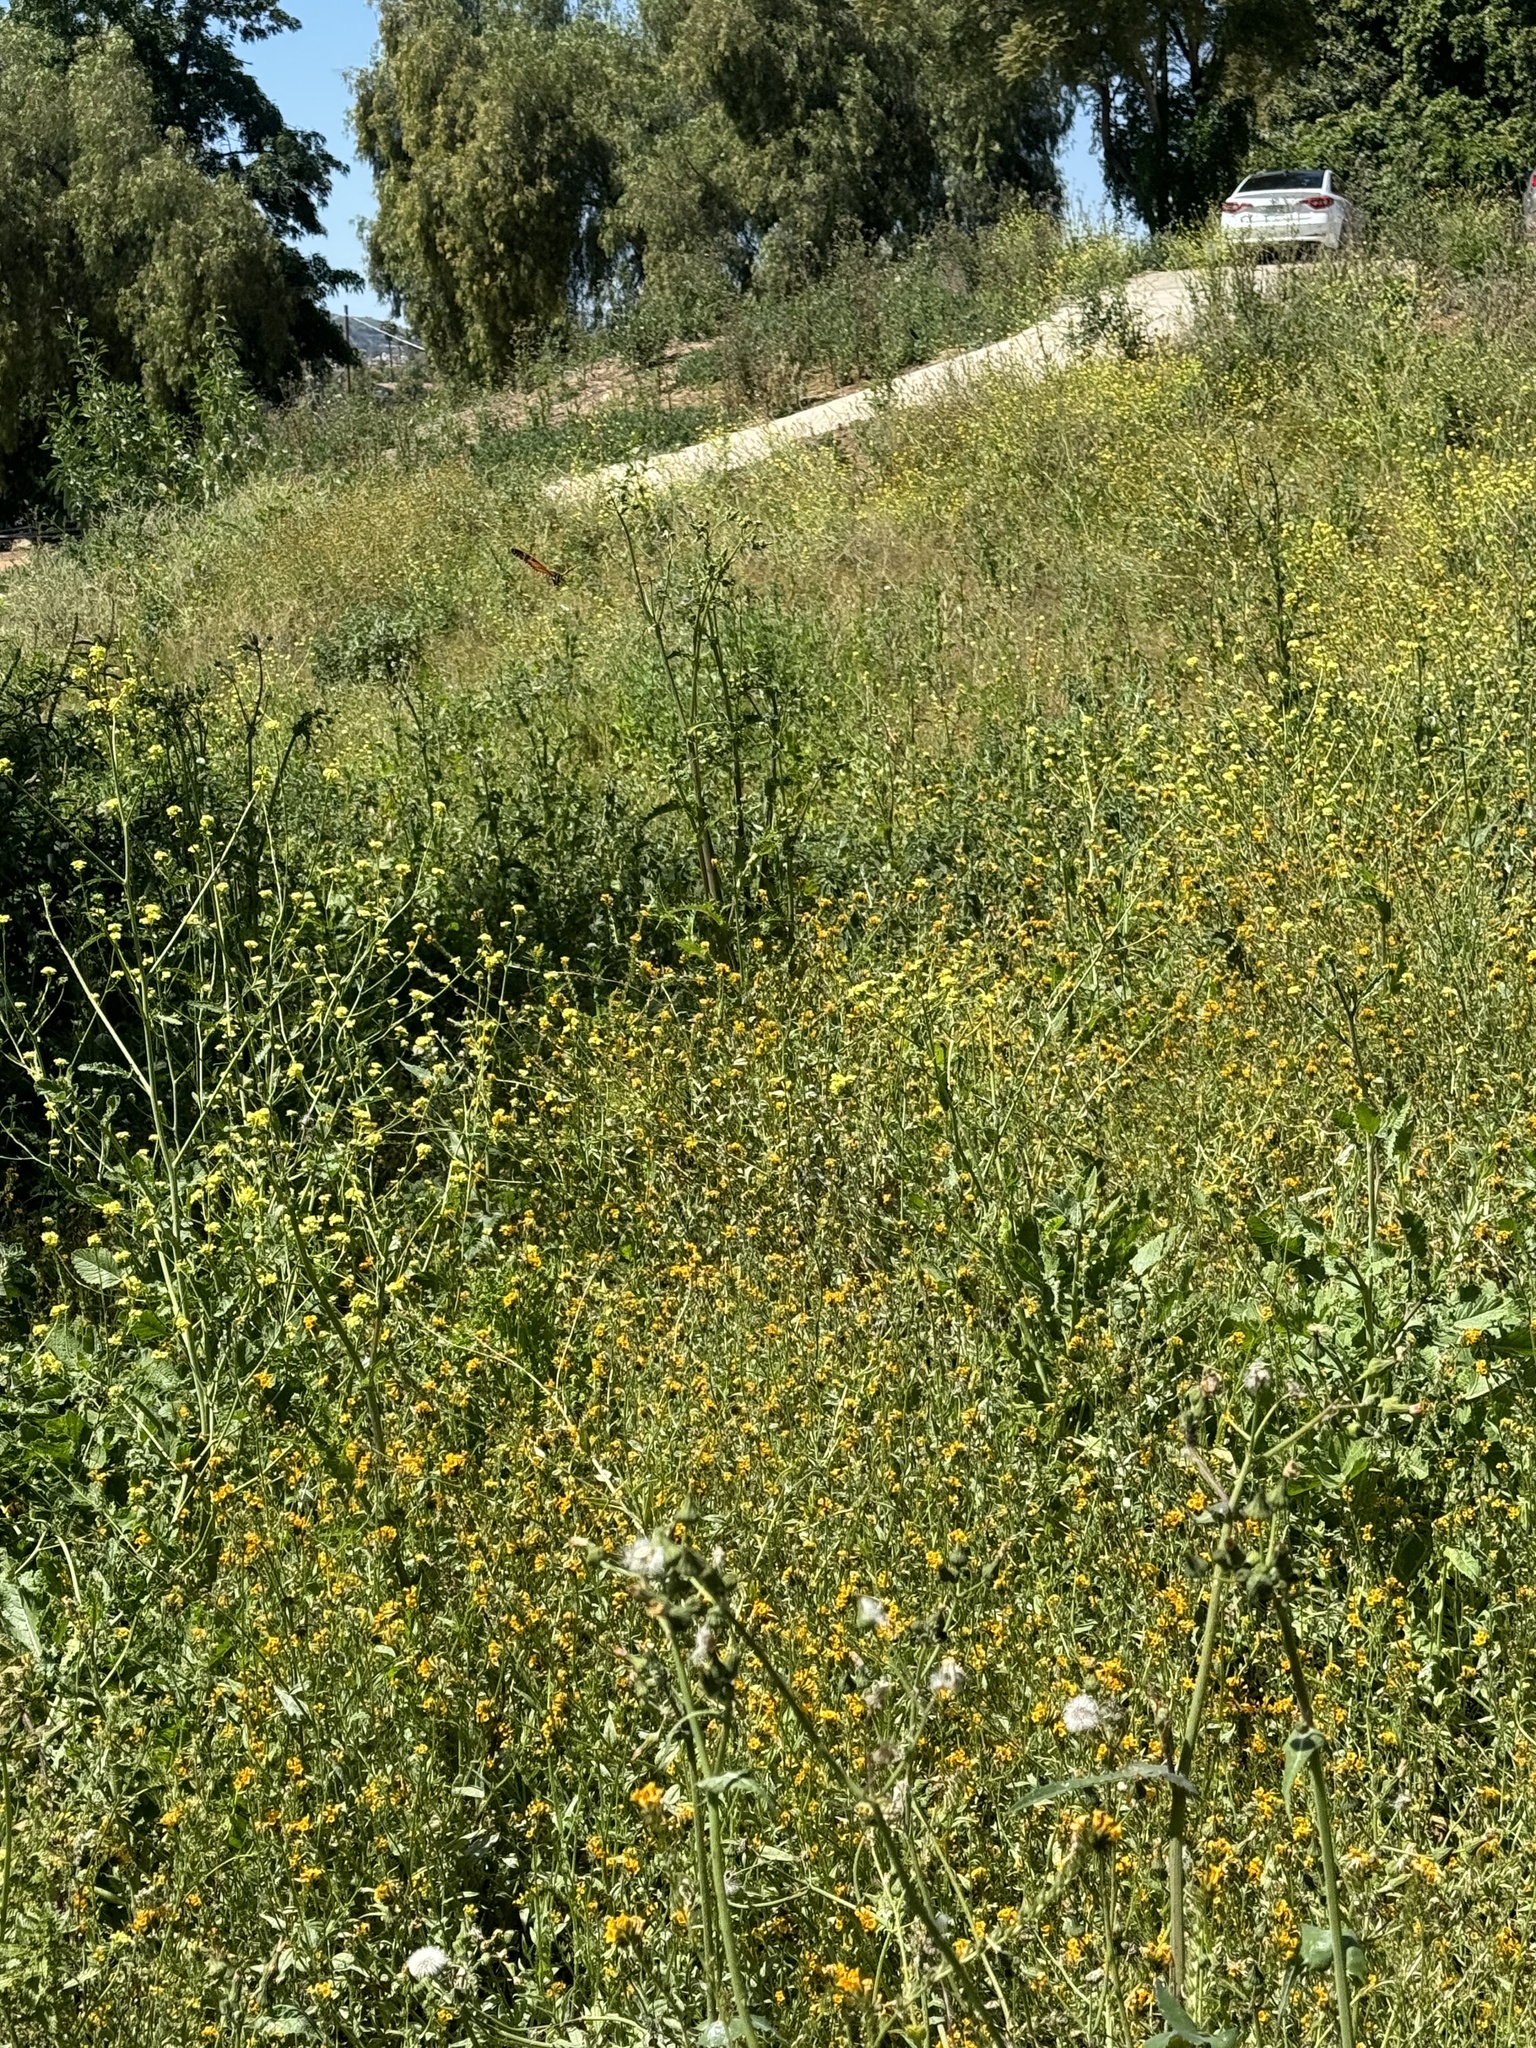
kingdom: Animalia
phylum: Arthropoda
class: Insecta
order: Lepidoptera
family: Nymphalidae
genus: Danaus
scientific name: Danaus plexippus
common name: Monarch
